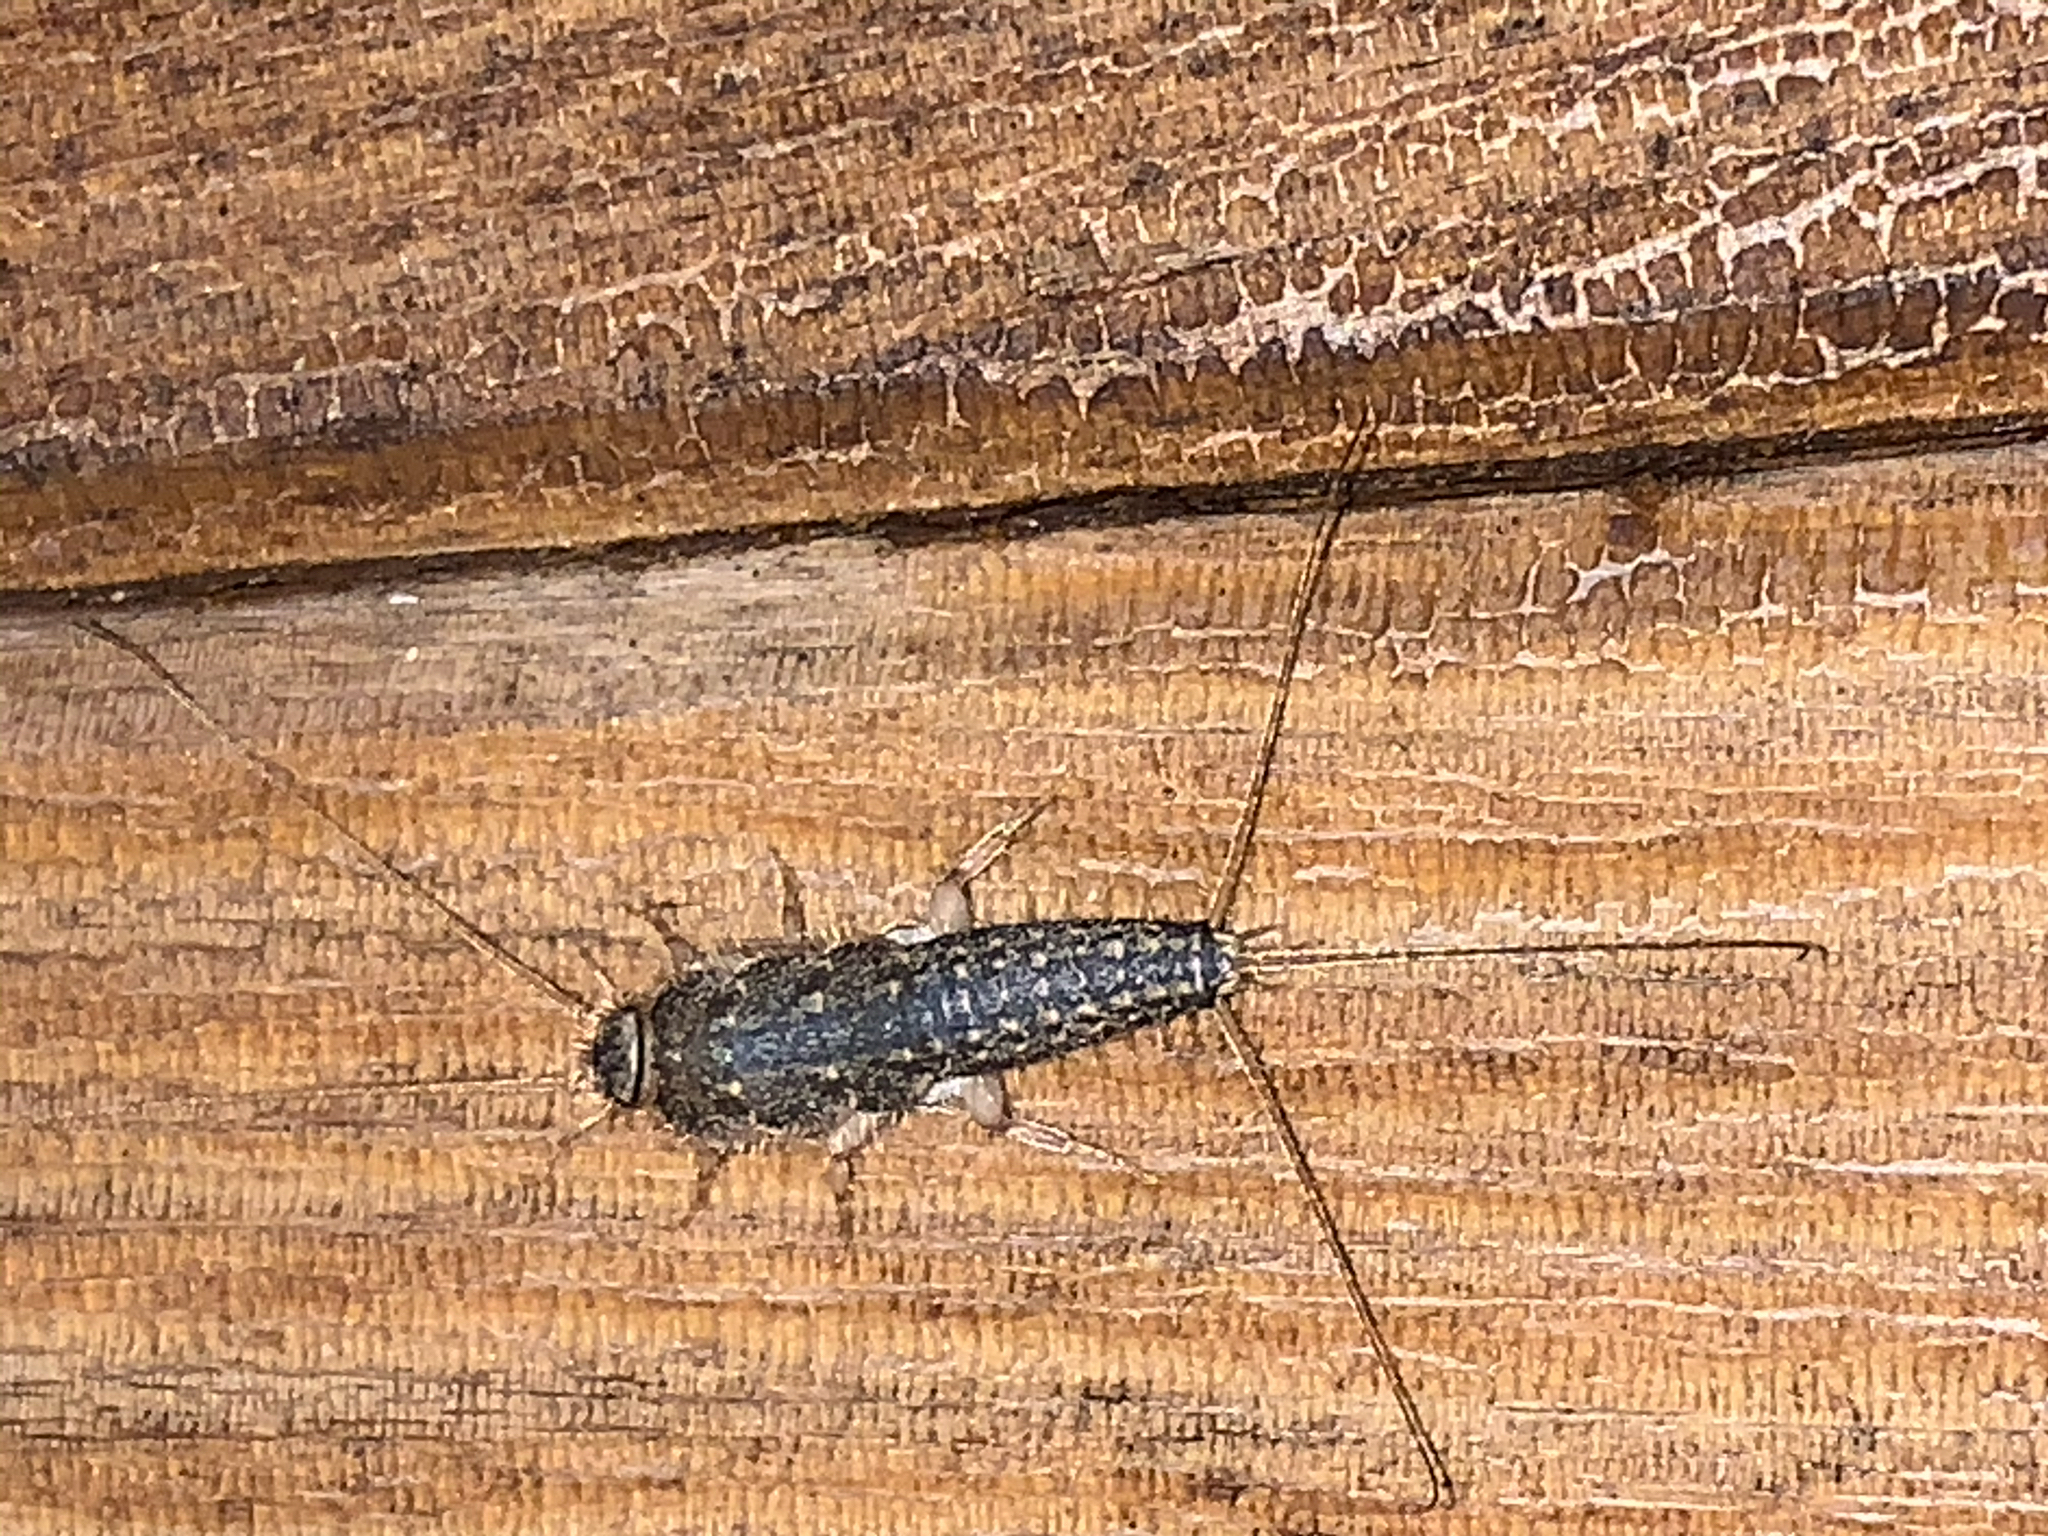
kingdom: Animalia
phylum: Arthropoda
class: Insecta
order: Zygentoma
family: Lepismatidae
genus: Ctenolepisma
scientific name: Ctenolepisma lineata
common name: Four-lined silverfish
